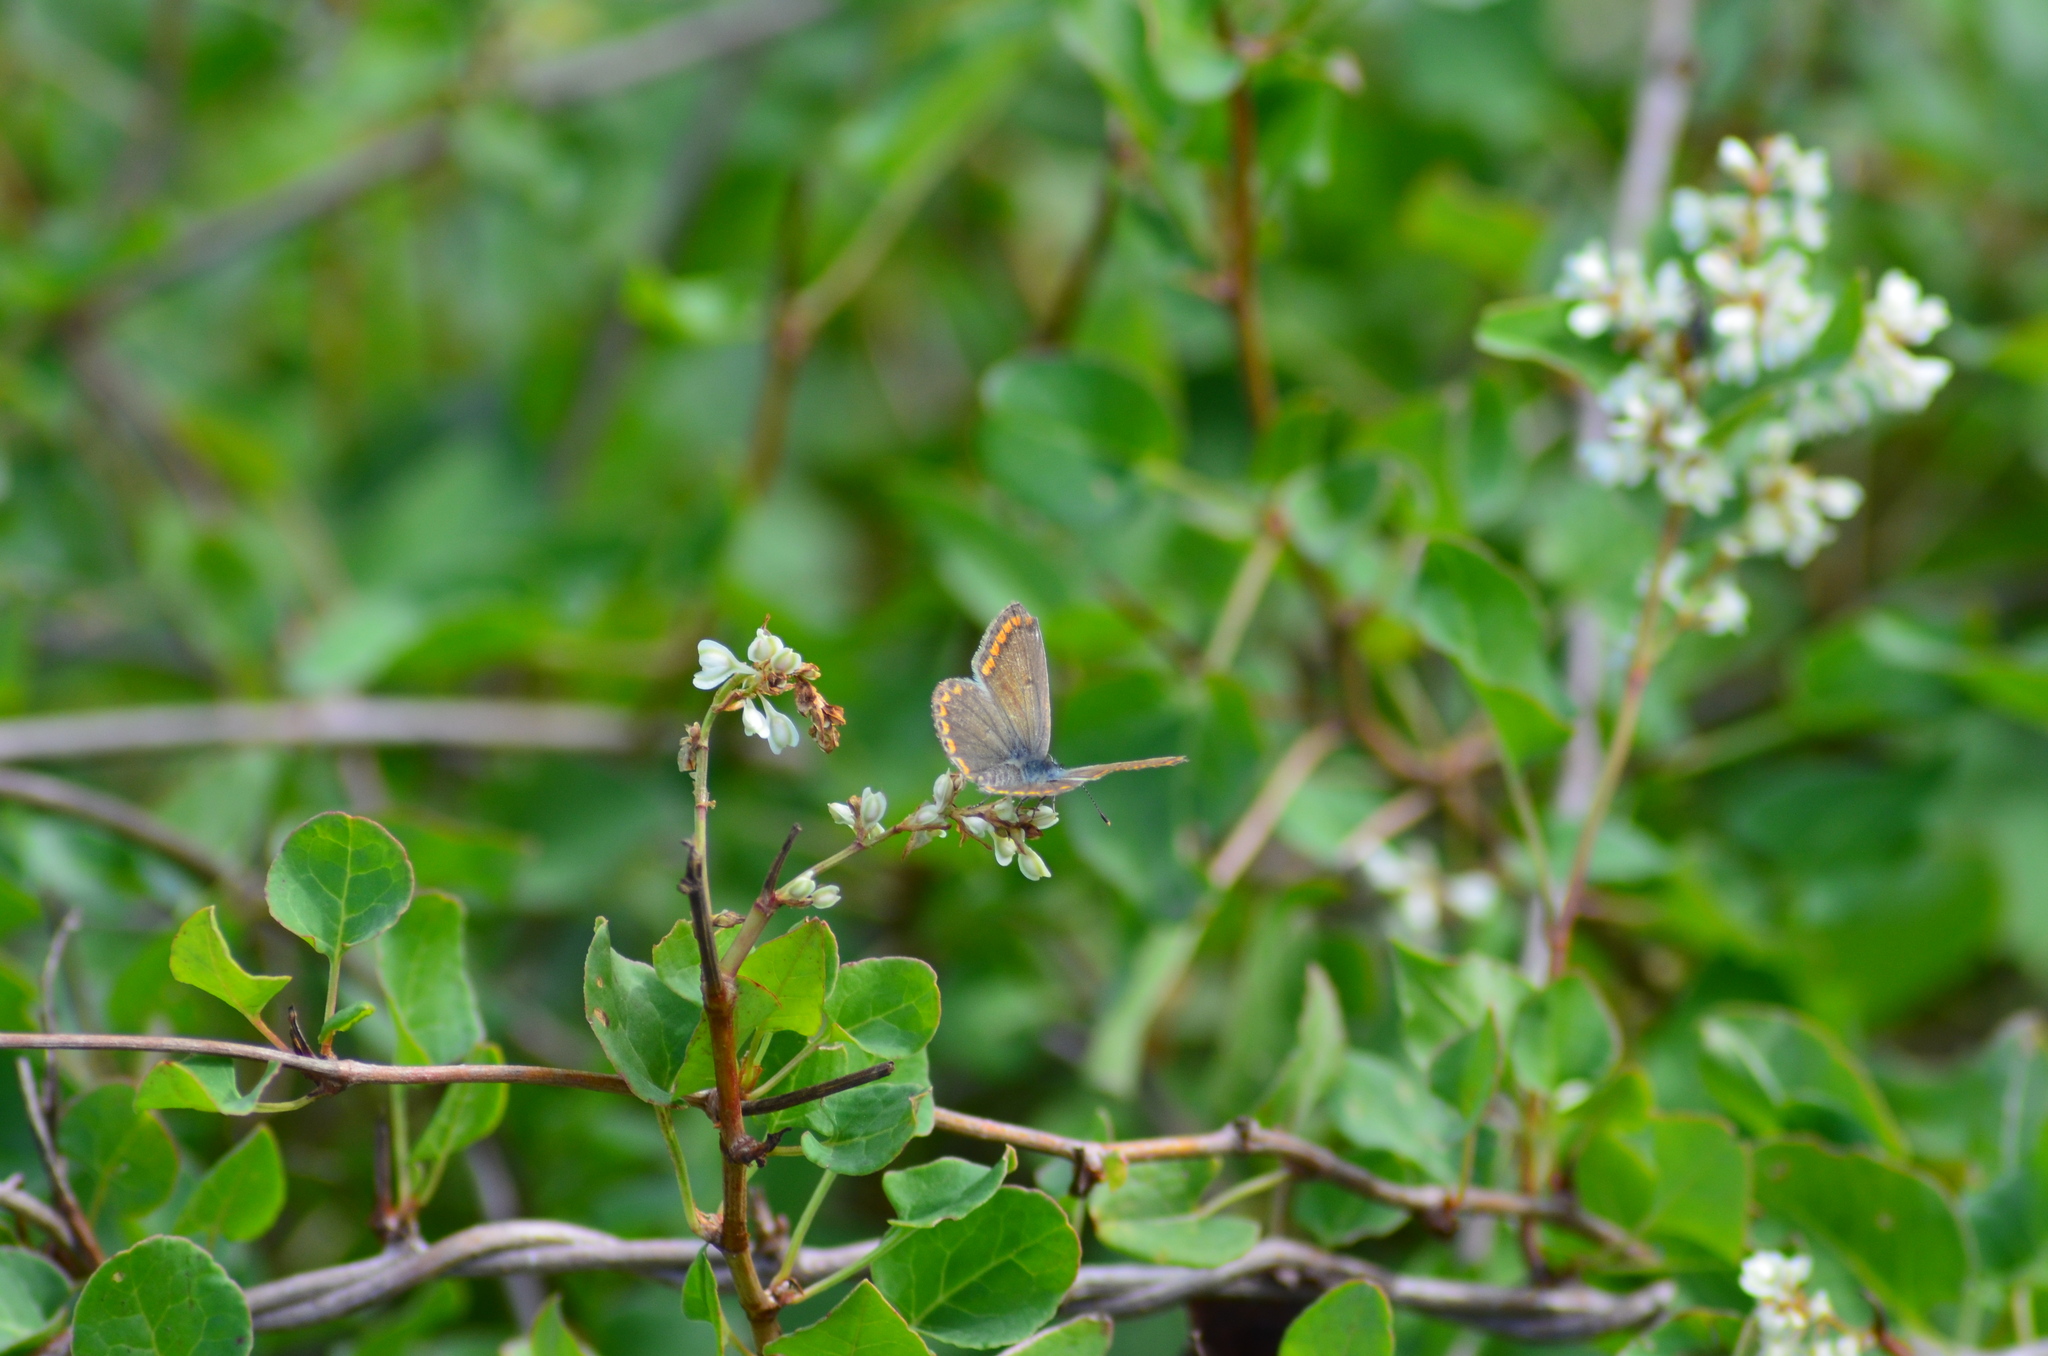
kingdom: Animalia
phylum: Arthropoda
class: Insecta
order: Lepidoptera
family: Lycaenidae
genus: Aricia
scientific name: Aricia agestis
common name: Brown argus
